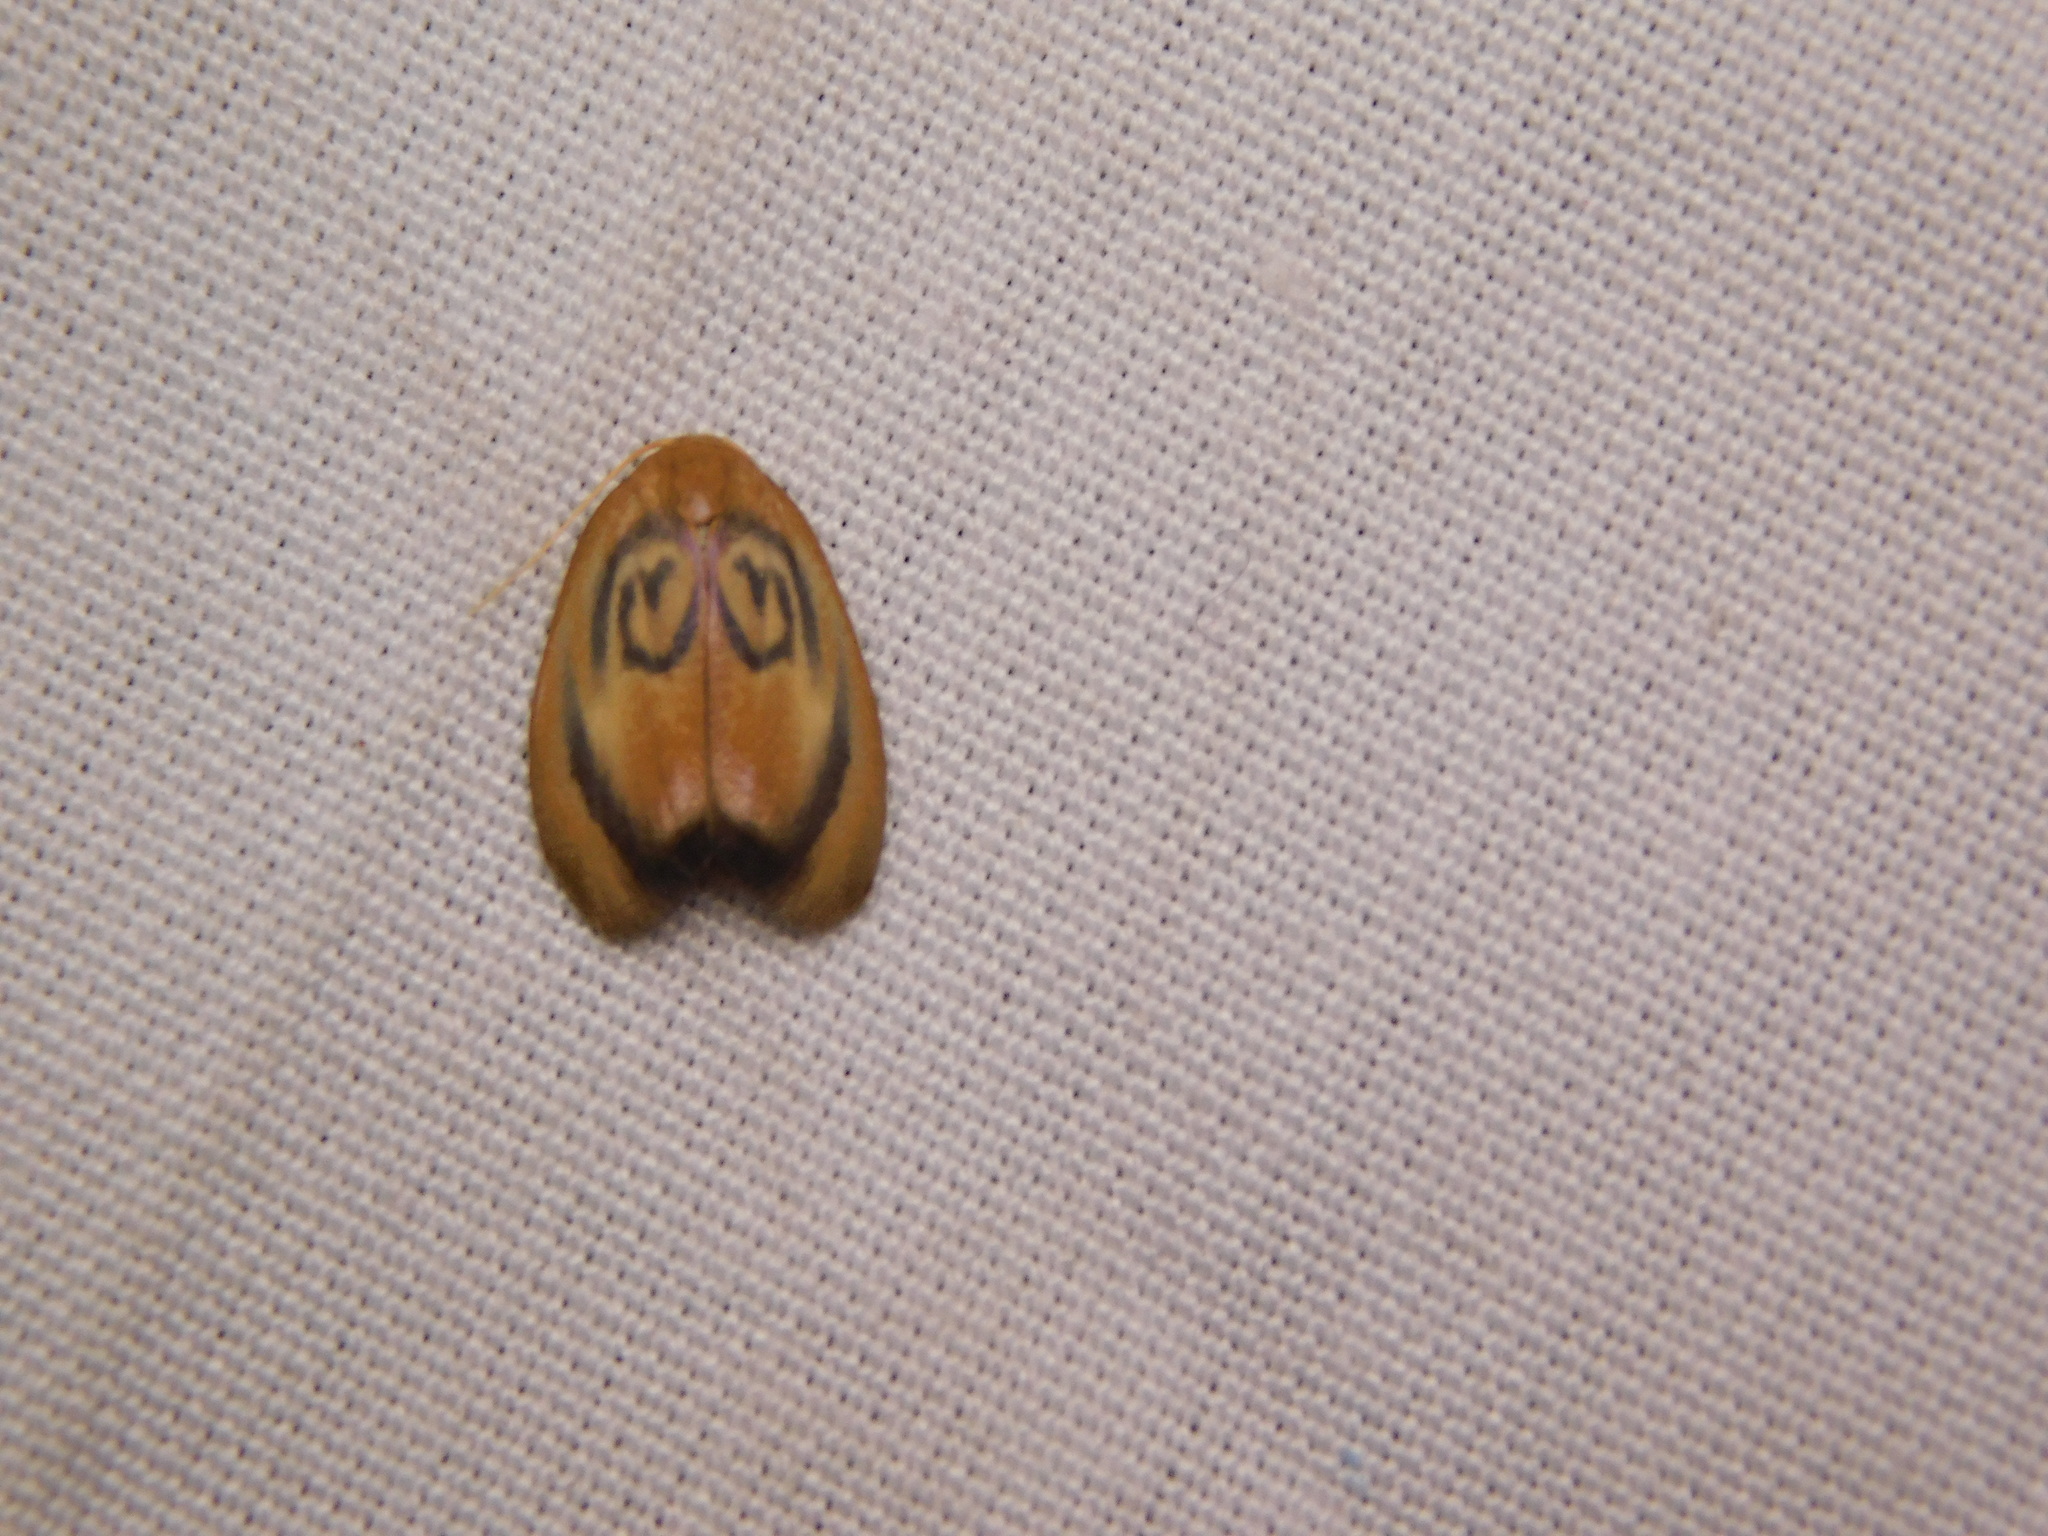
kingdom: Animalia
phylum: Arthropoda
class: Insecta
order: Lepidoptera
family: Erebidae
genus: Trischalis
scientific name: Trischalis subaurana
